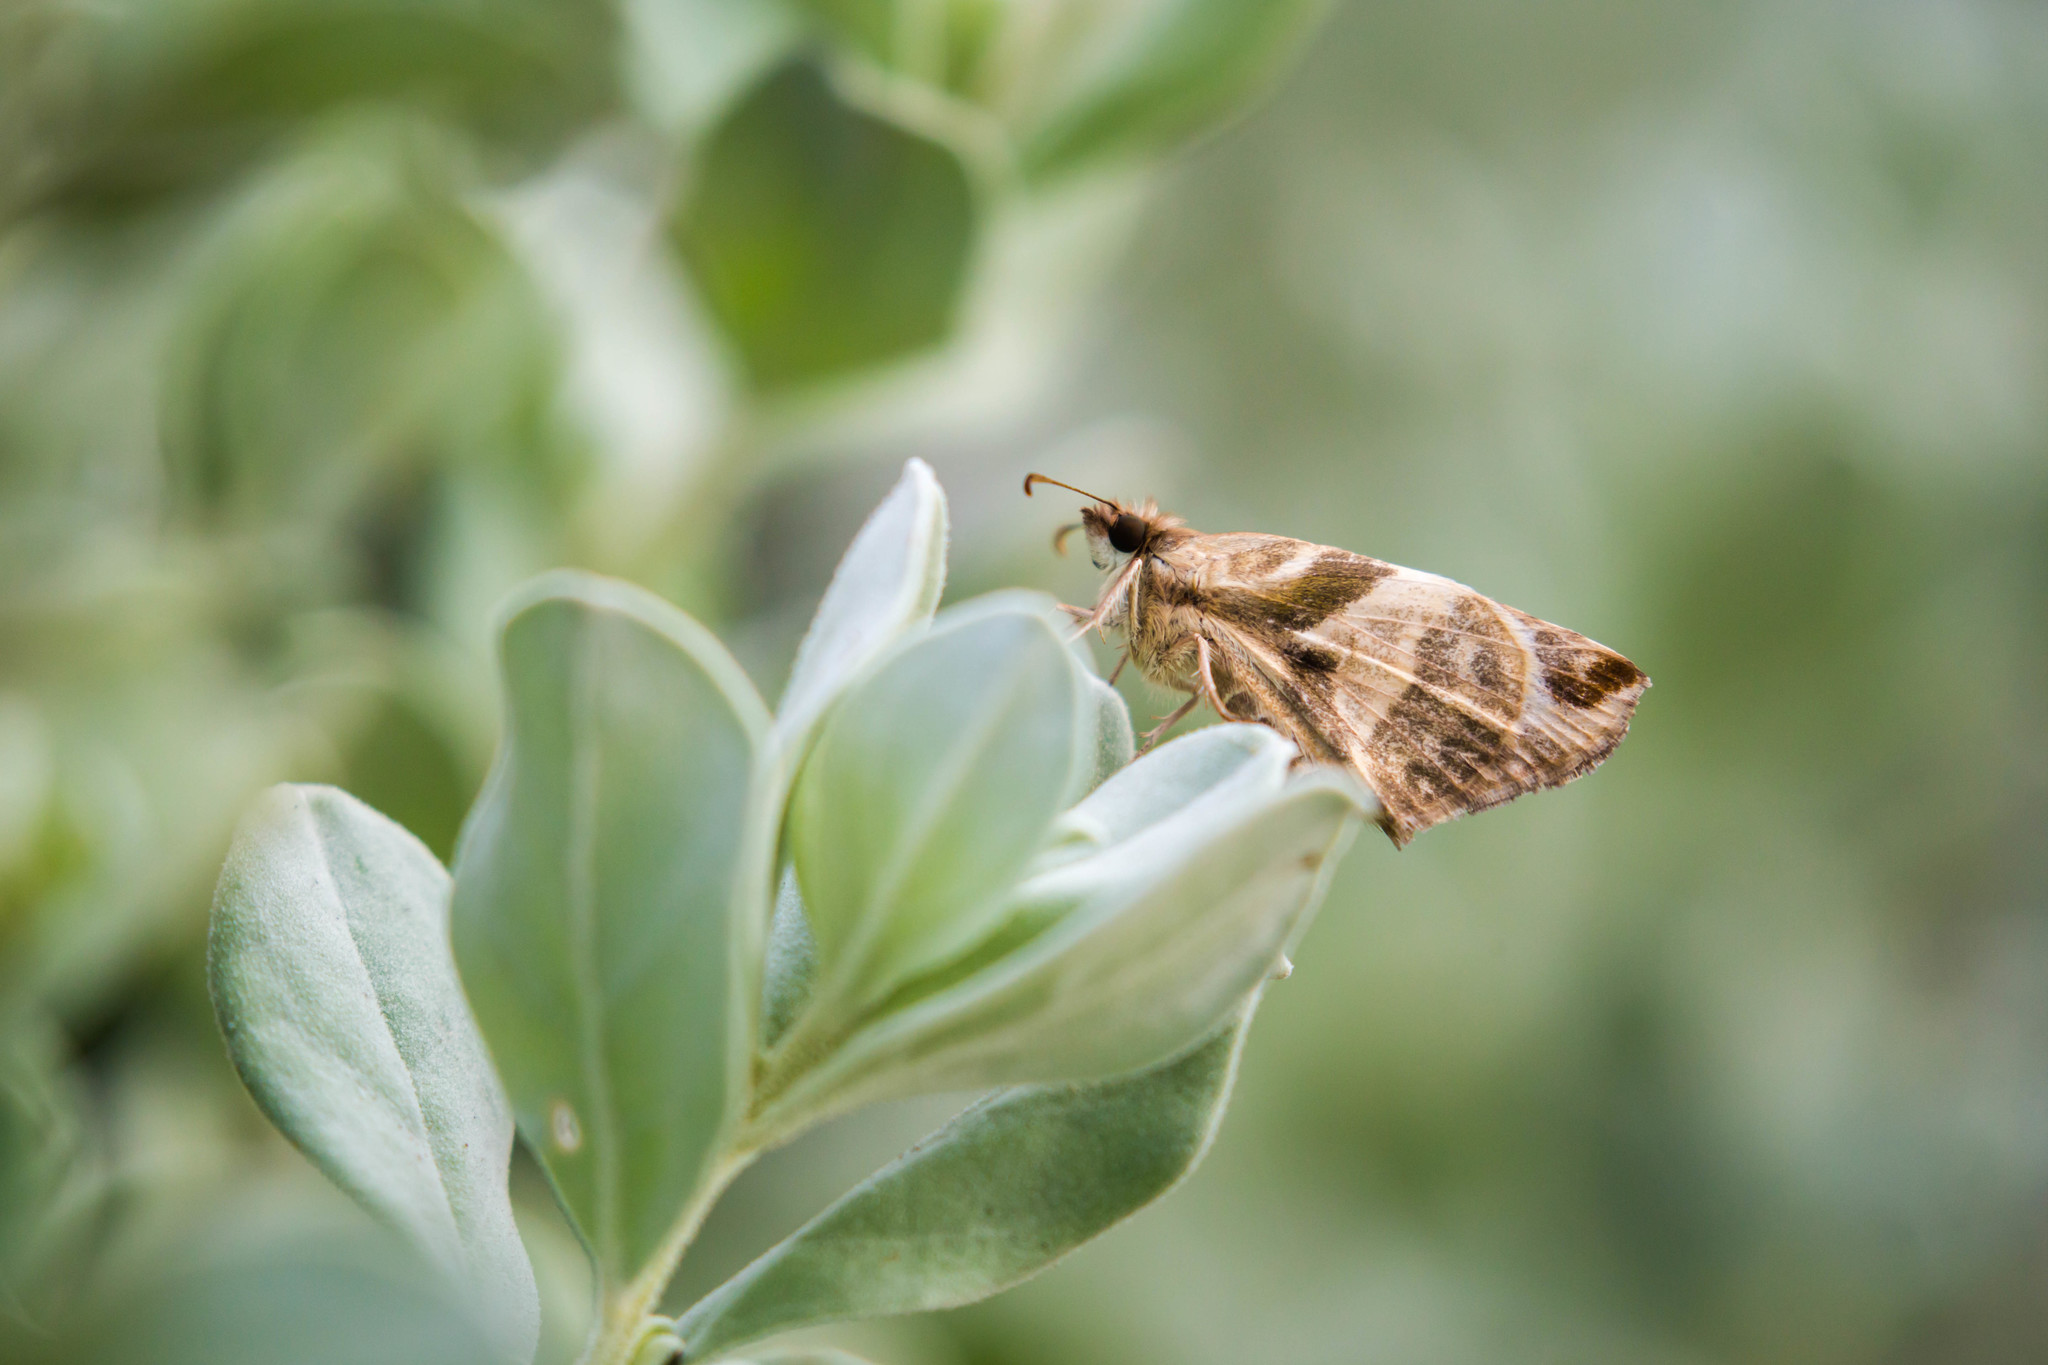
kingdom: Animalia
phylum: Arthropoda
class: Insecta
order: Lepidoptera
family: Hesperiidae
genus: Heliopetes
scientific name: Heliopetes laviana
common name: Laviana white-skipper
